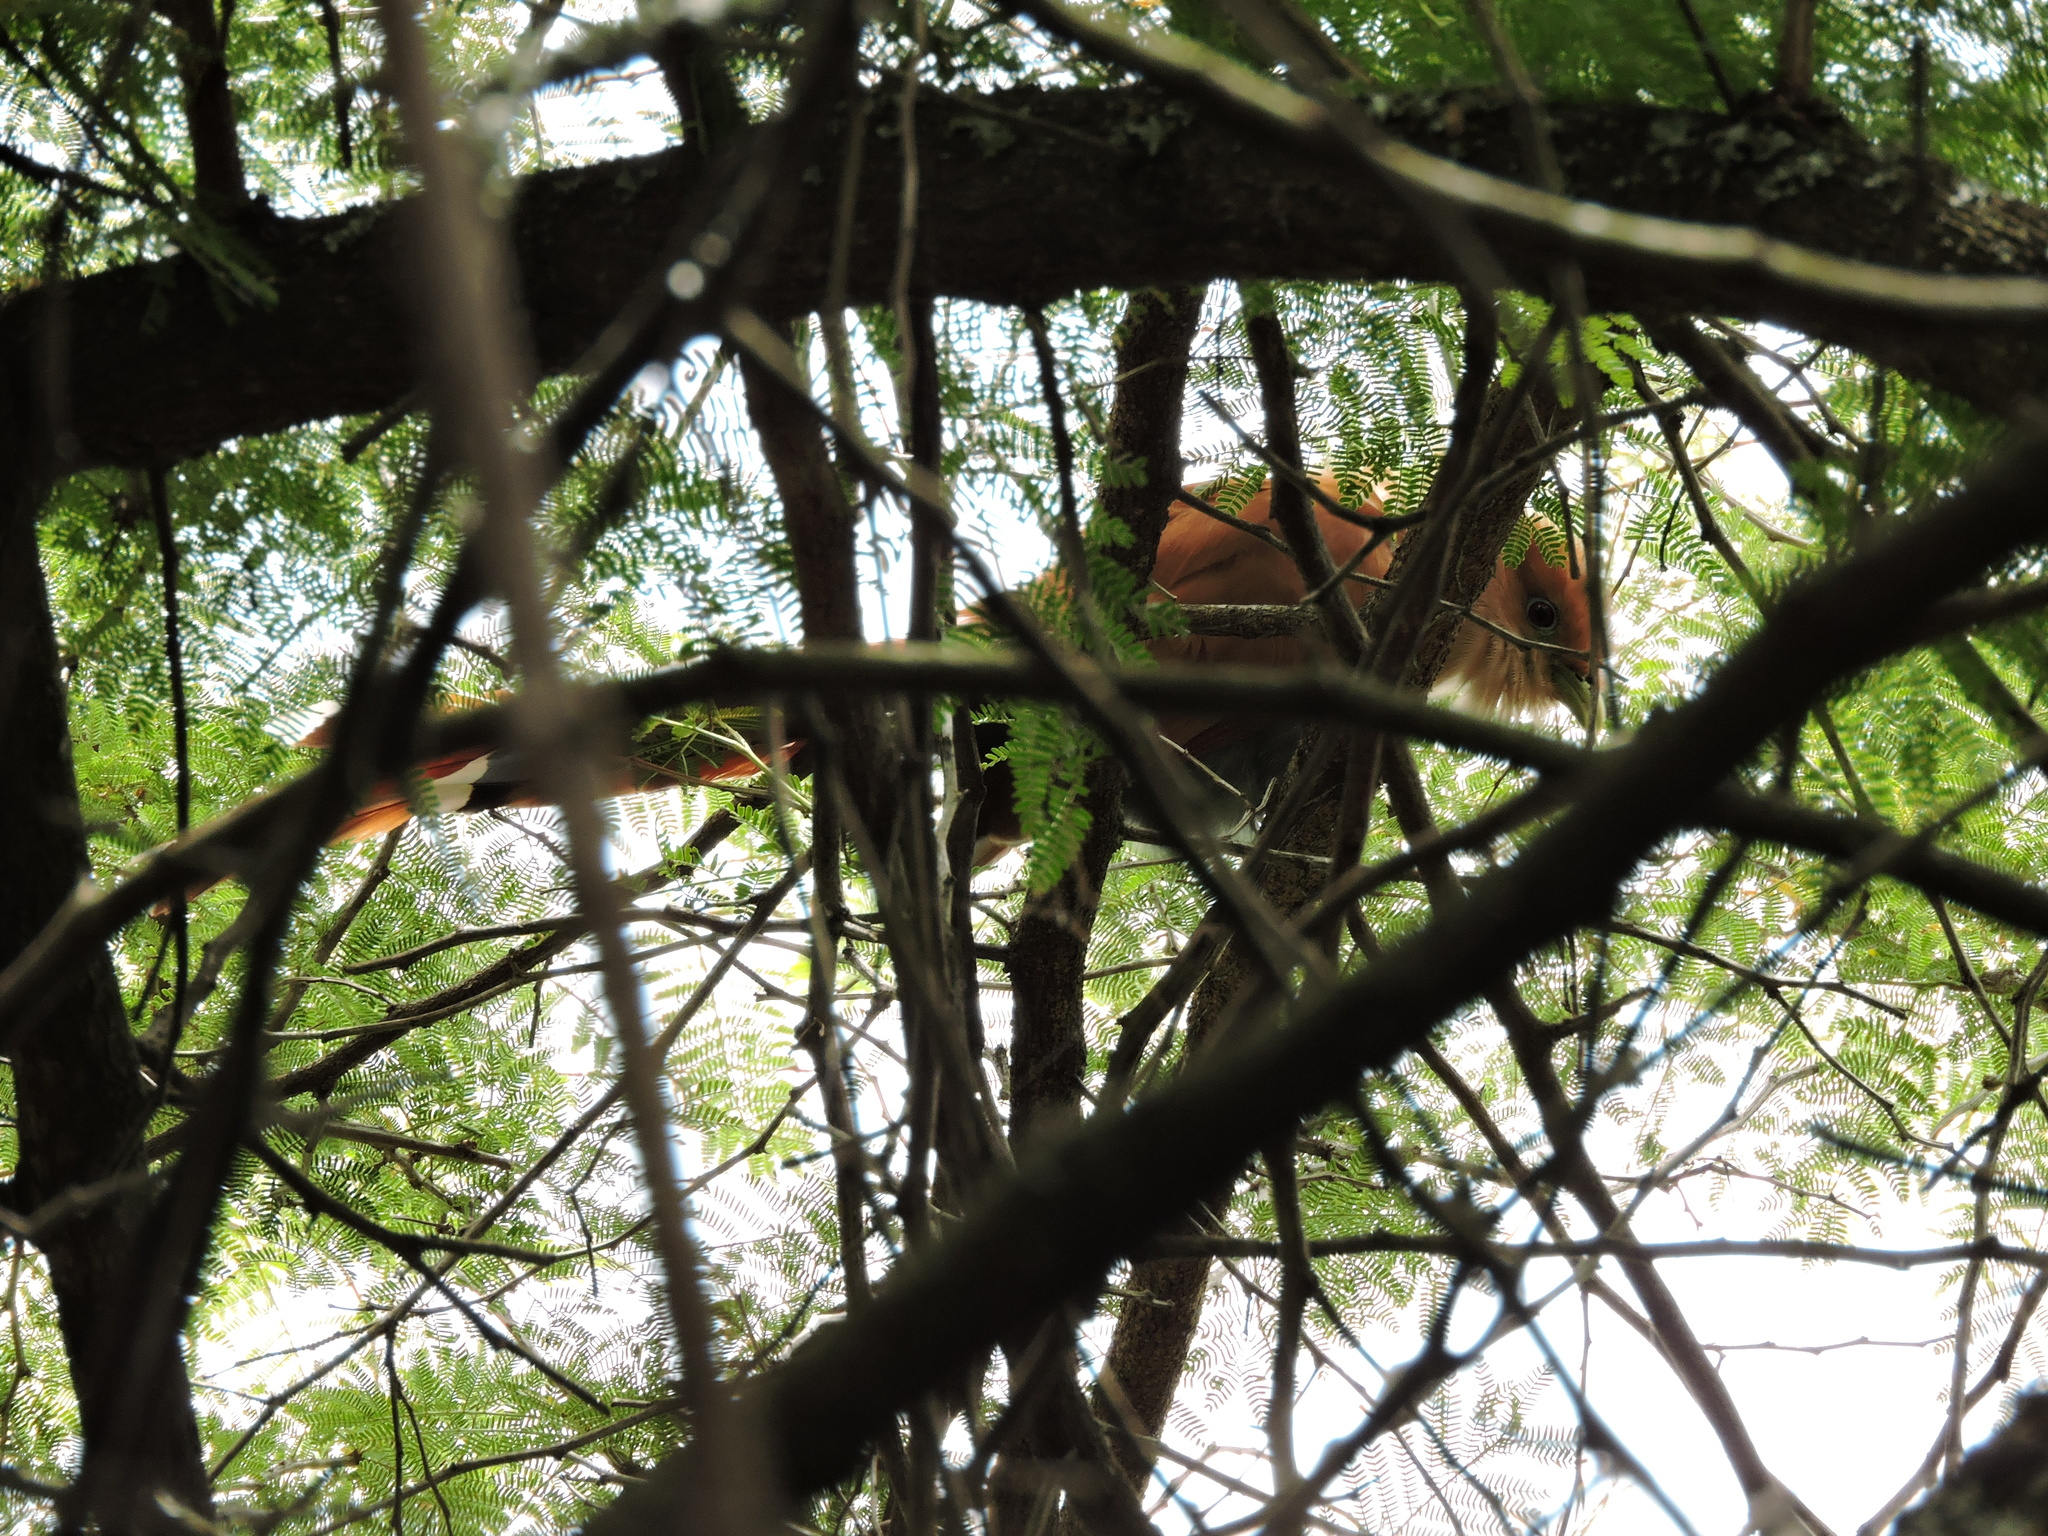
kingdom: Animalia
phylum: Chordata
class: Aves
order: Cuculiformes
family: Cuculidae
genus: Piaya
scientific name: Piaya cayana
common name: Squirrel cuckoo
